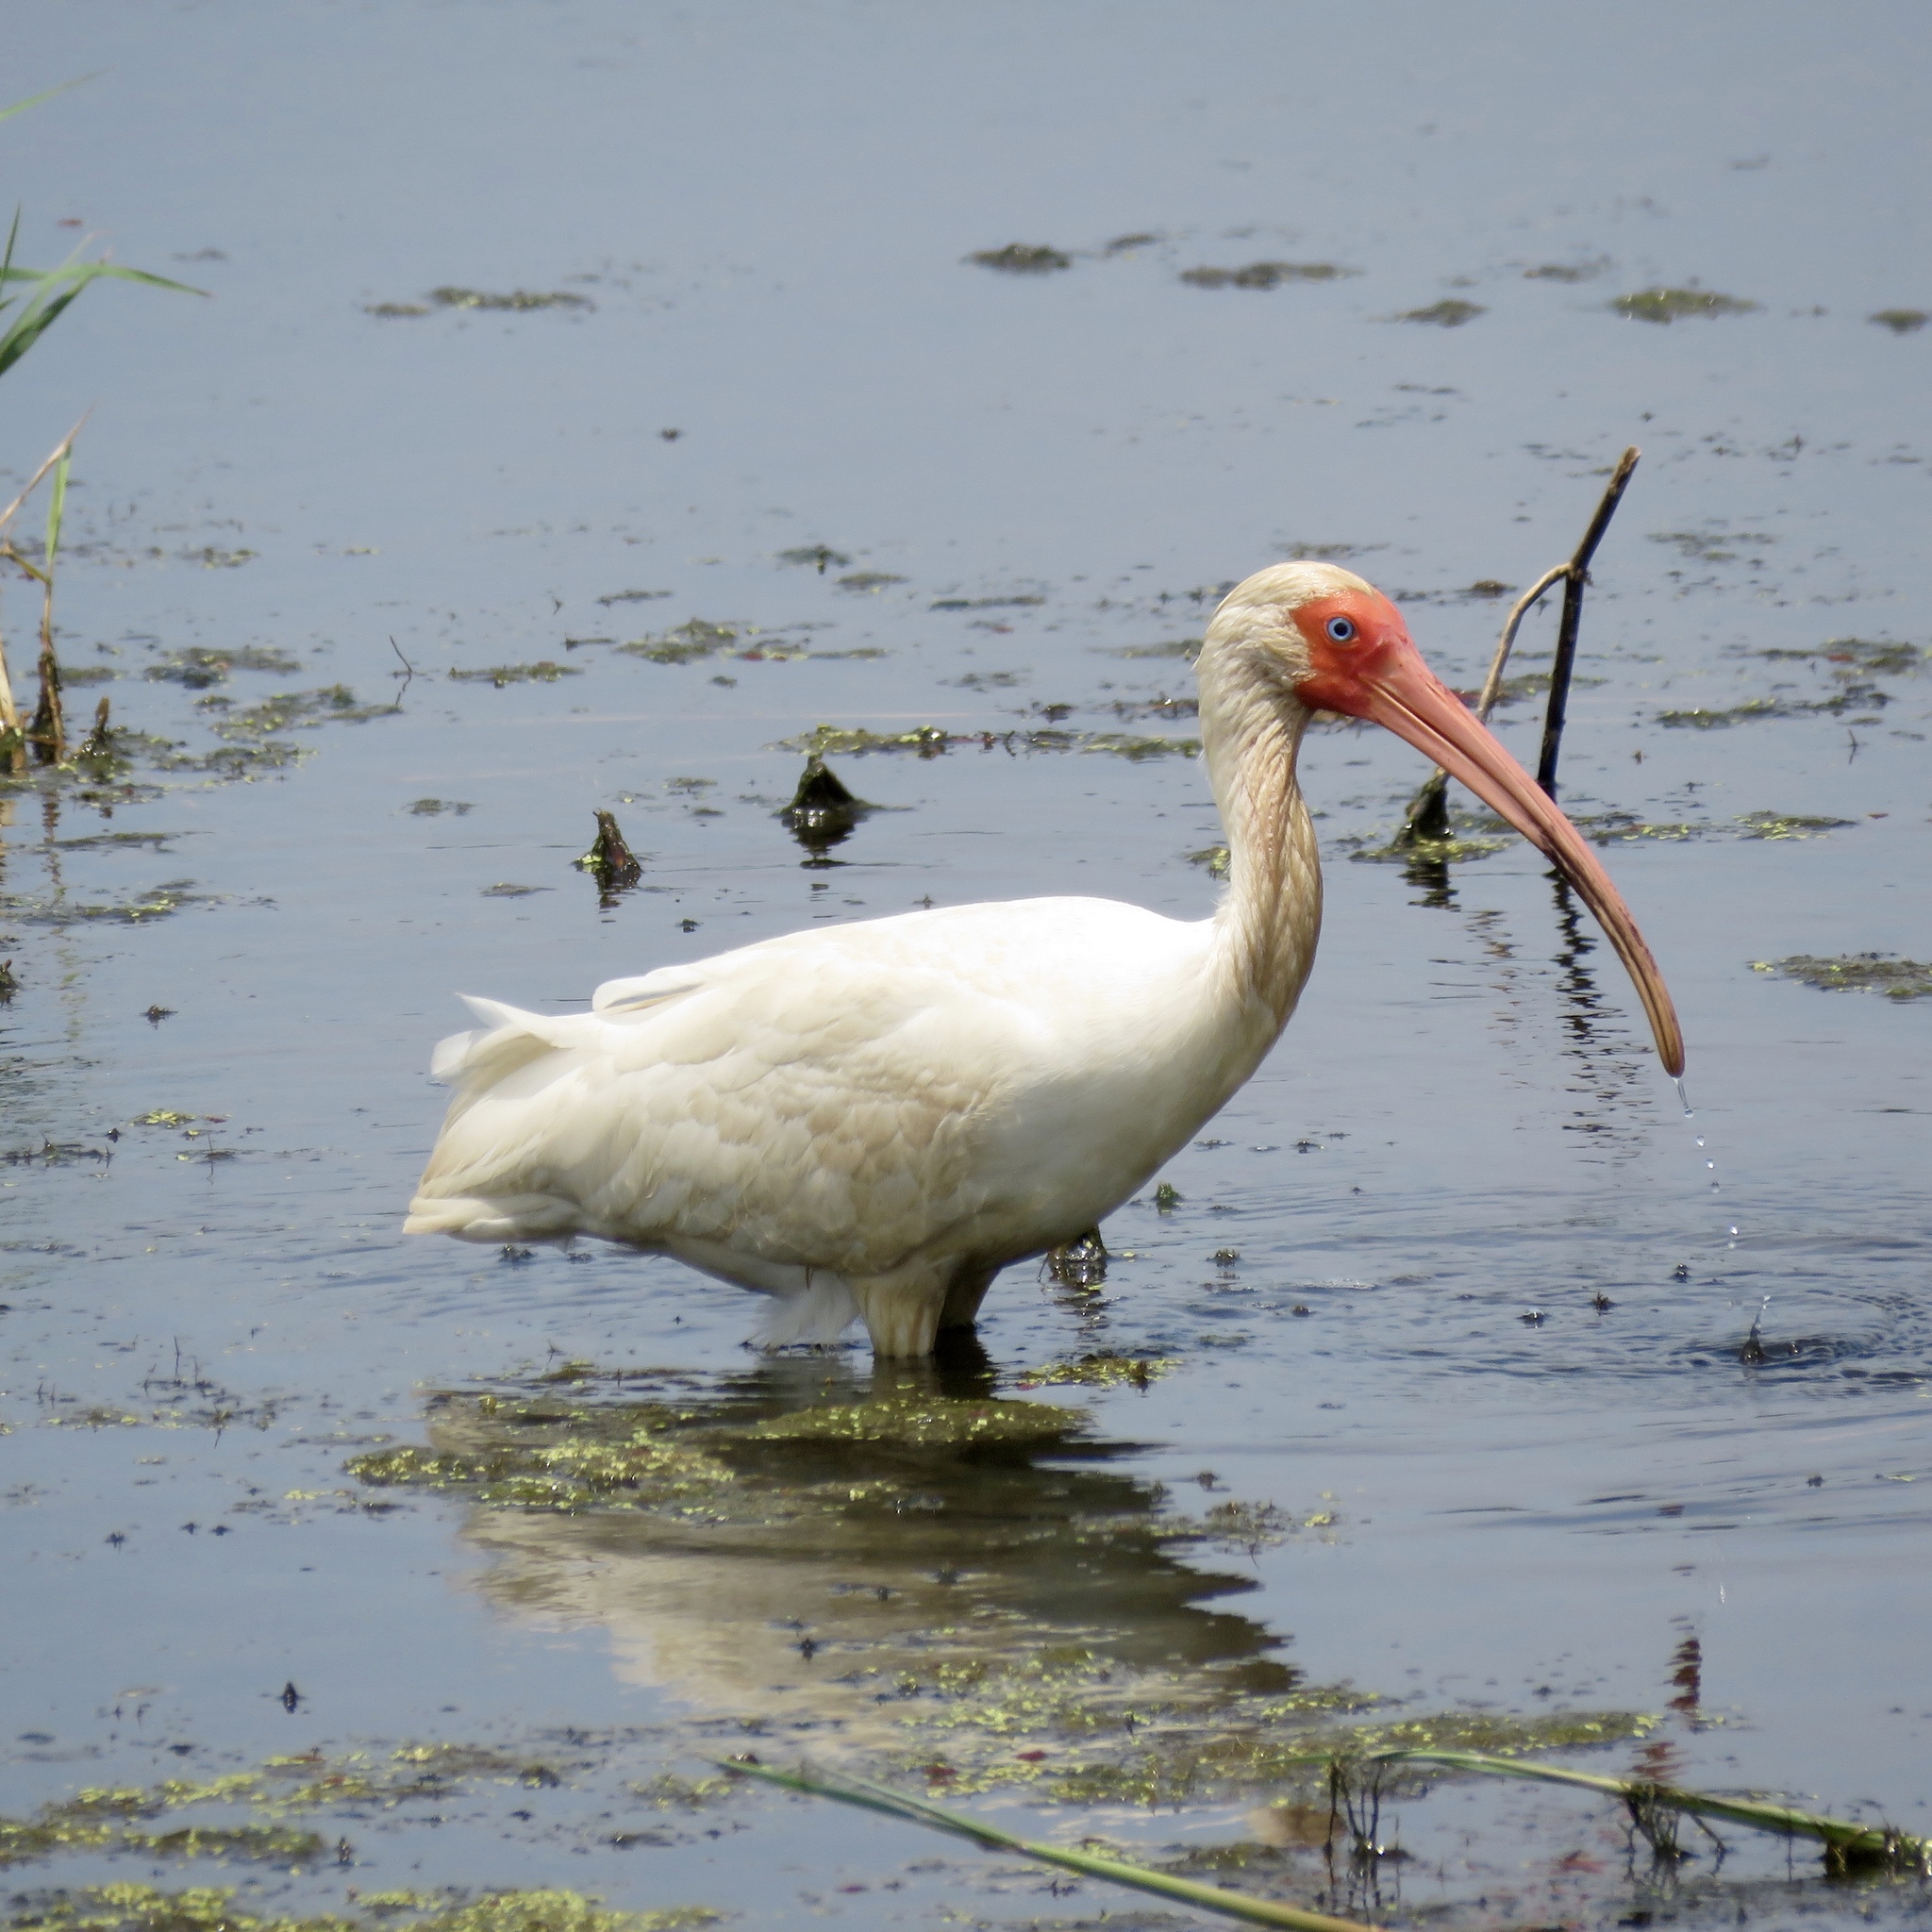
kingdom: Animalia
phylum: Chordata
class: Aves
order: Pelecaniformes
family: Threskiornithidae
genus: Eudocimus
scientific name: Eudocimus albus
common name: White ibis
